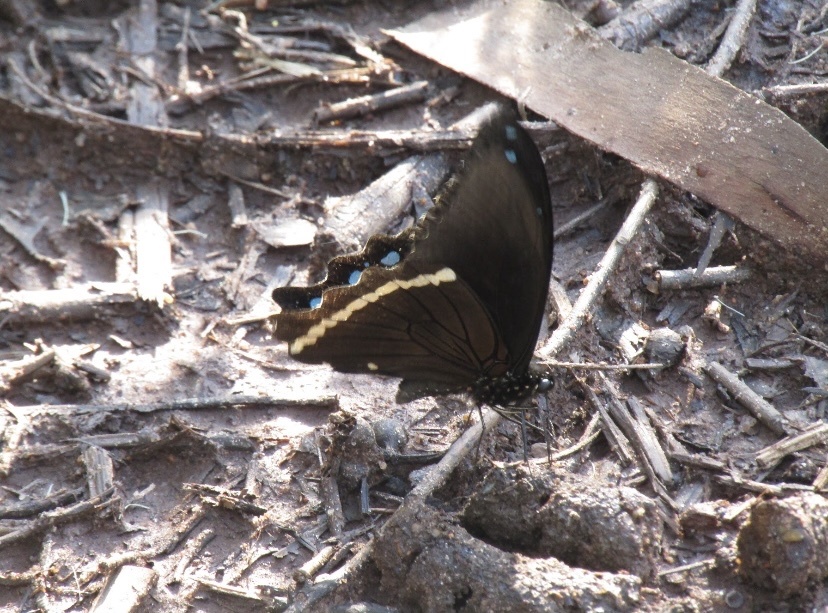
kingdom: Animalia
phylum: Arthropoda
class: Insecta
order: Lepidoptera
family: Papilionidae
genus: Papilio
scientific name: Papilio nireus
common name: Greenbanded swallowtail
